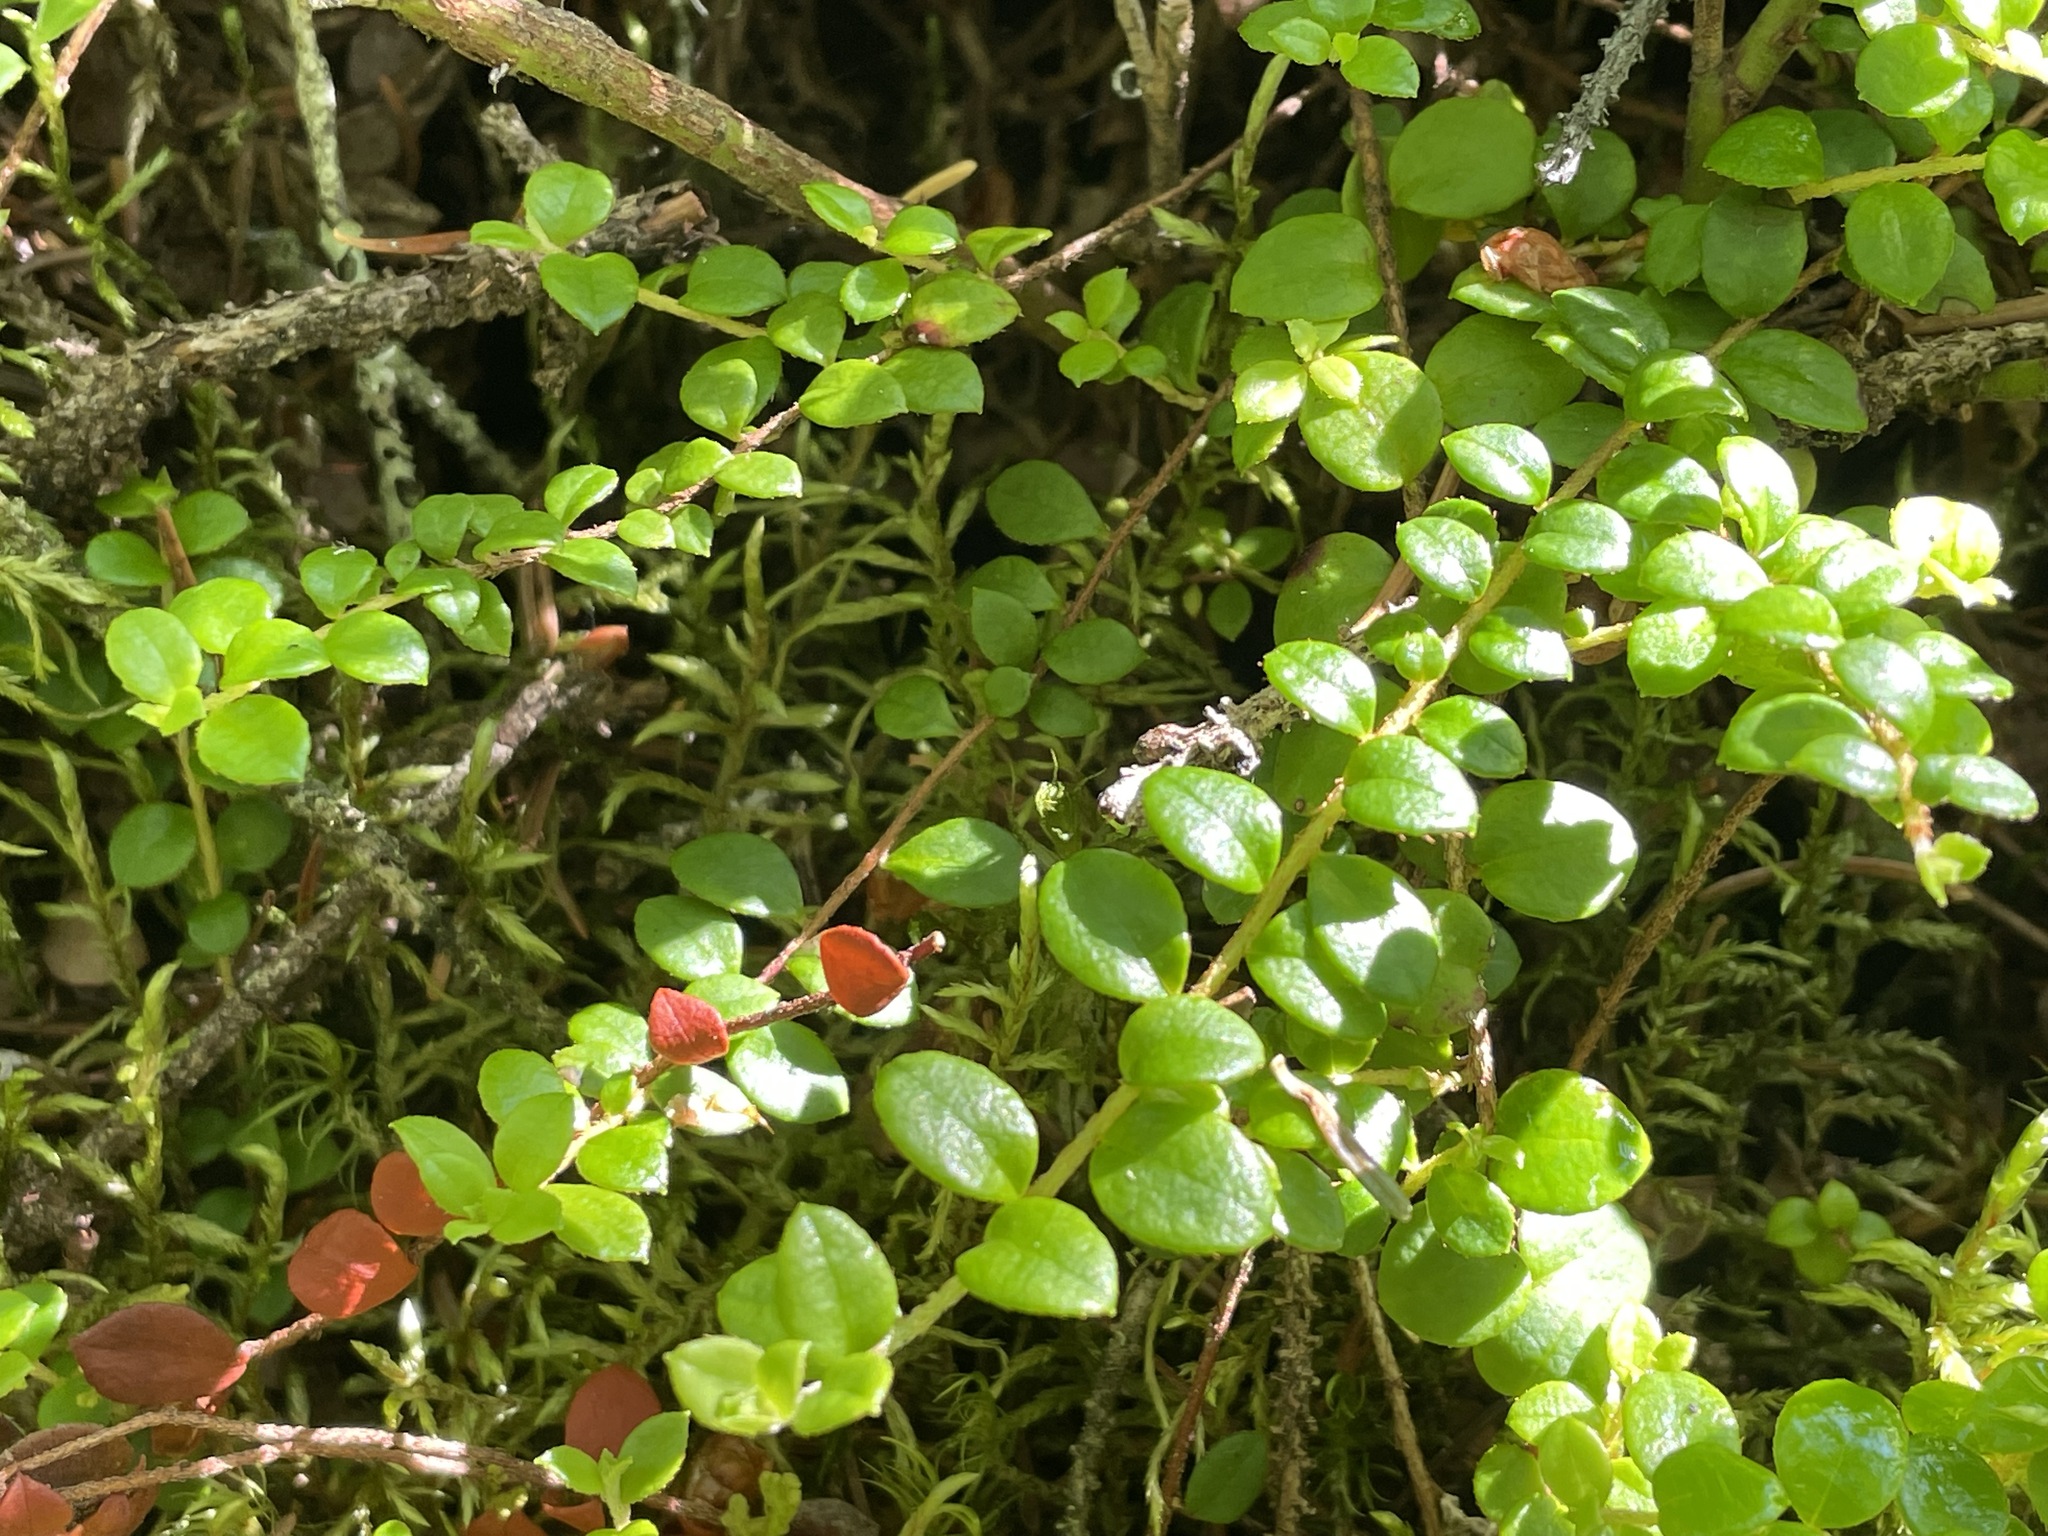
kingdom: Plantae
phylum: Tracheophyta
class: Magnoliopsida
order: Ericales
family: Ericaceae
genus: Gaultheria
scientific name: Gaultheria hispidula
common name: Cancer wintergreen
